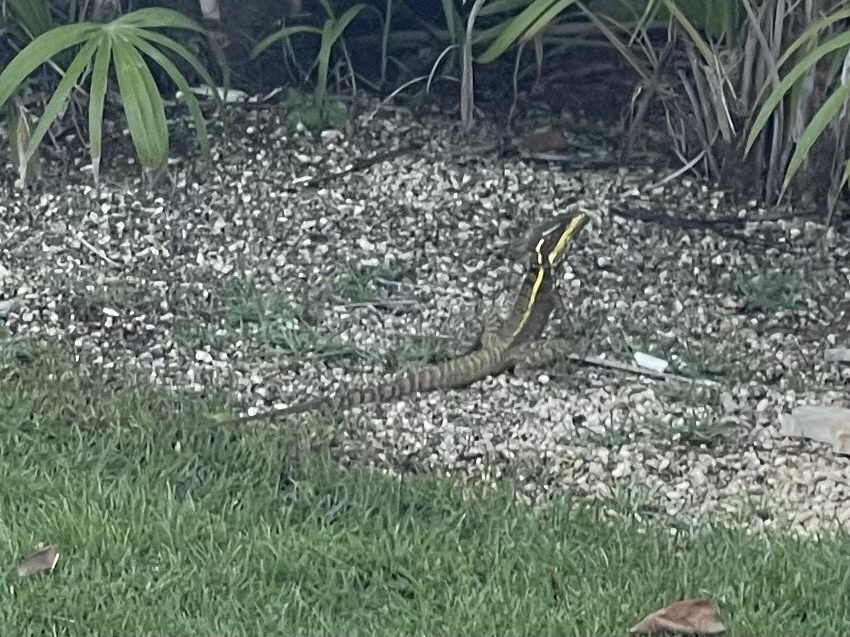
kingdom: Animalia
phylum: Chordata
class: Squamata
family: Corytophanidae
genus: Basiliscus
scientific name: Basiliscus vittatus
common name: Brown basilisk
